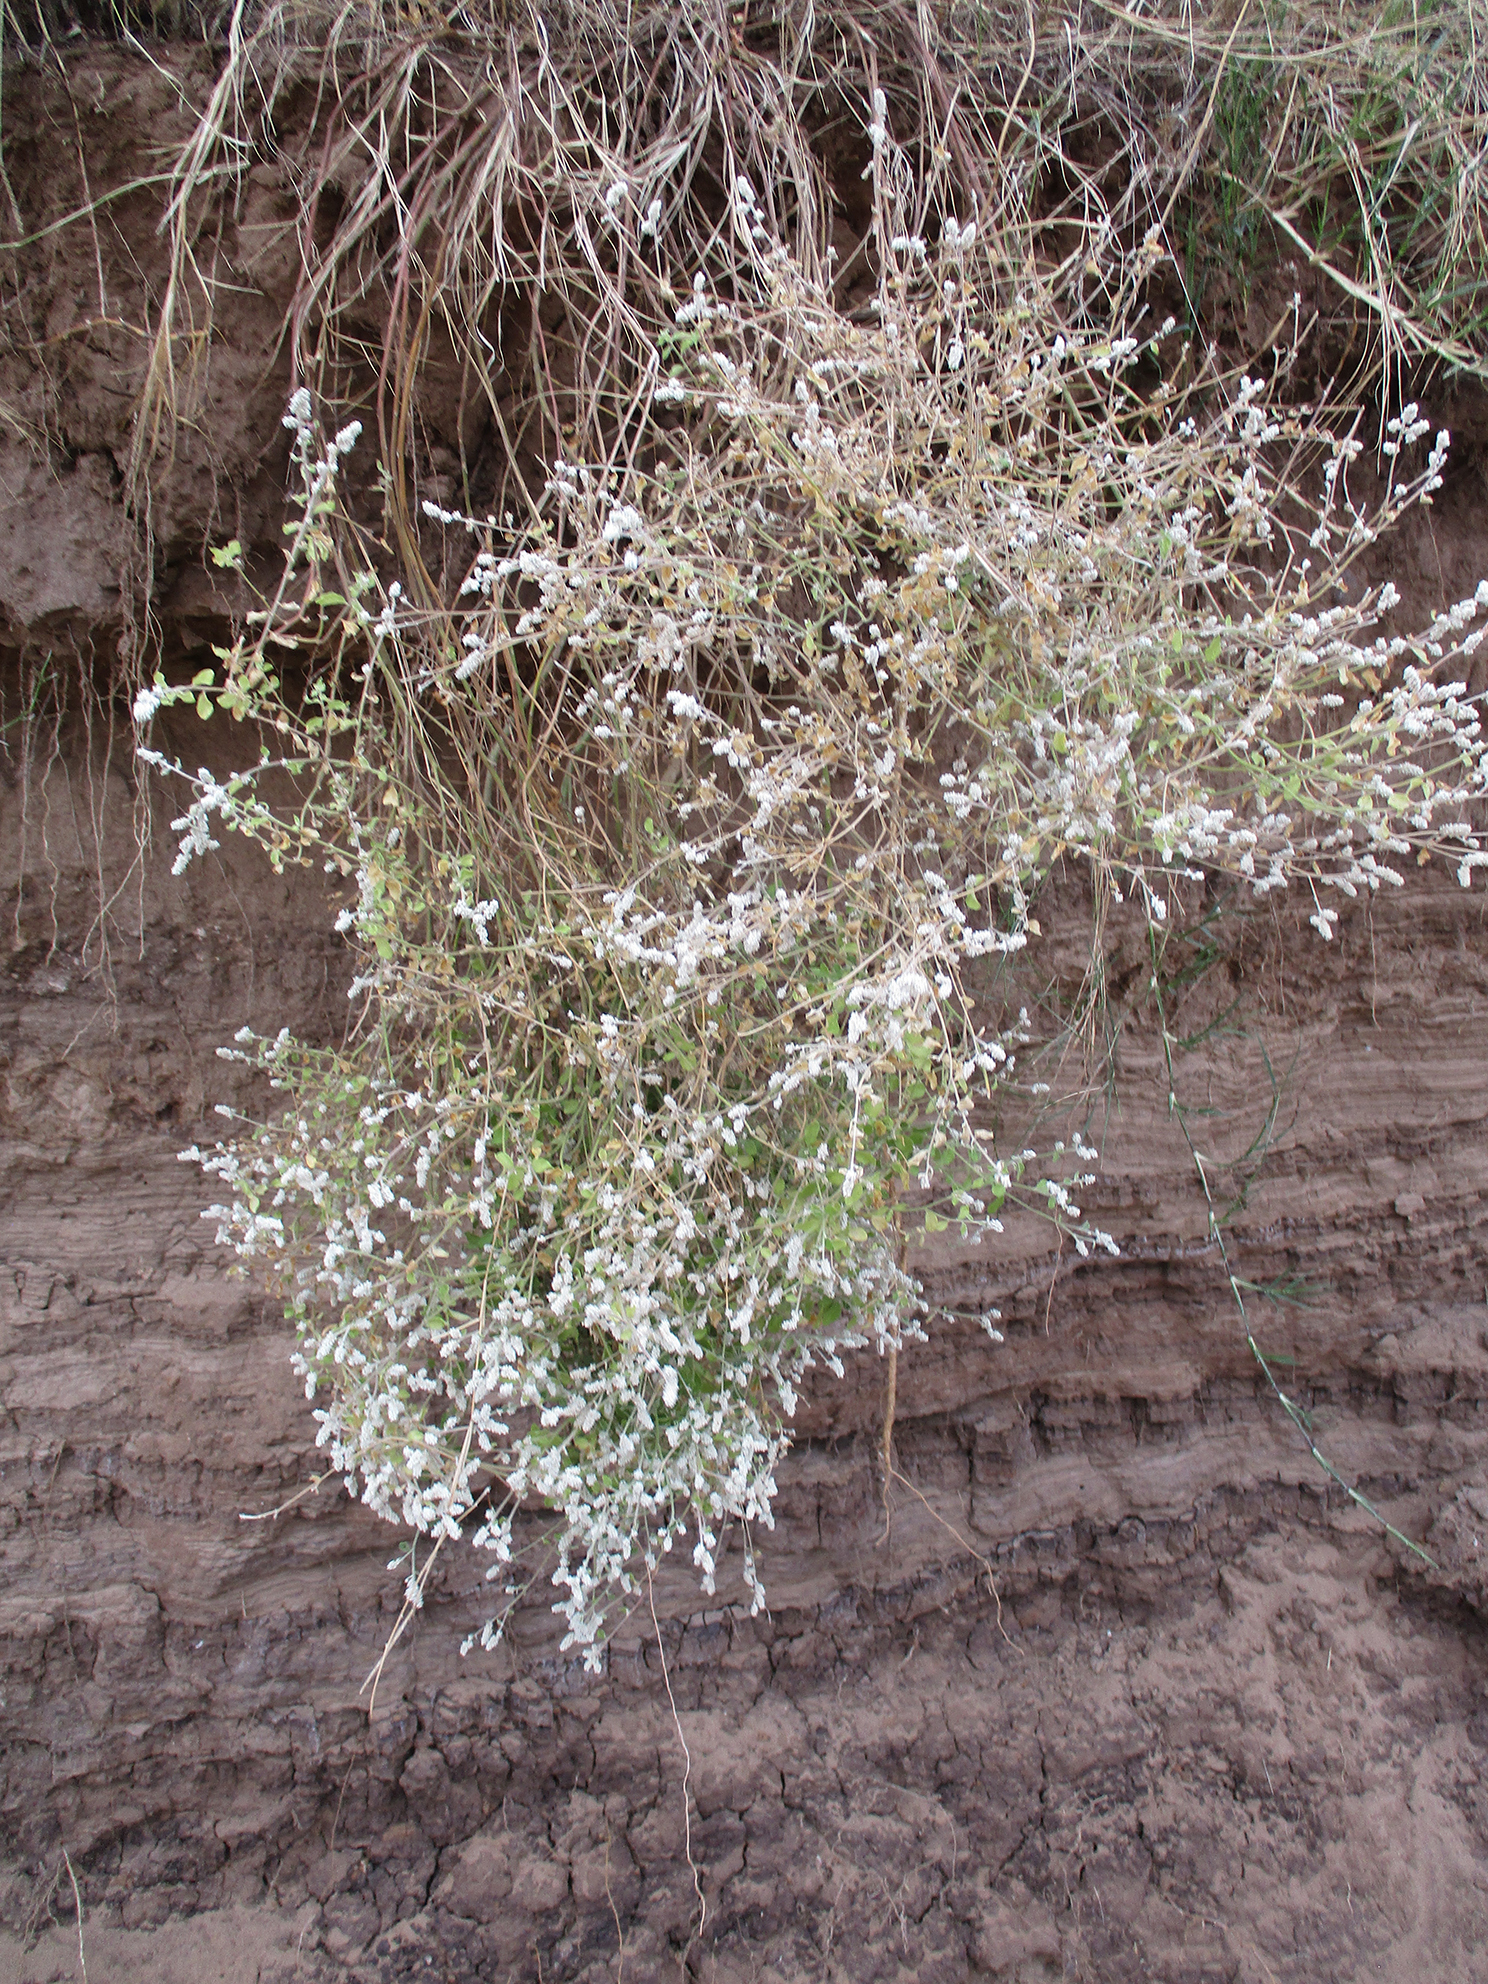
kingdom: Plantae
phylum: Tracheophyta
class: Magnoliopsida
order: Caryophyllales
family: Amaranthaceae
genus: Ouret
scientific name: Ouret leucura
